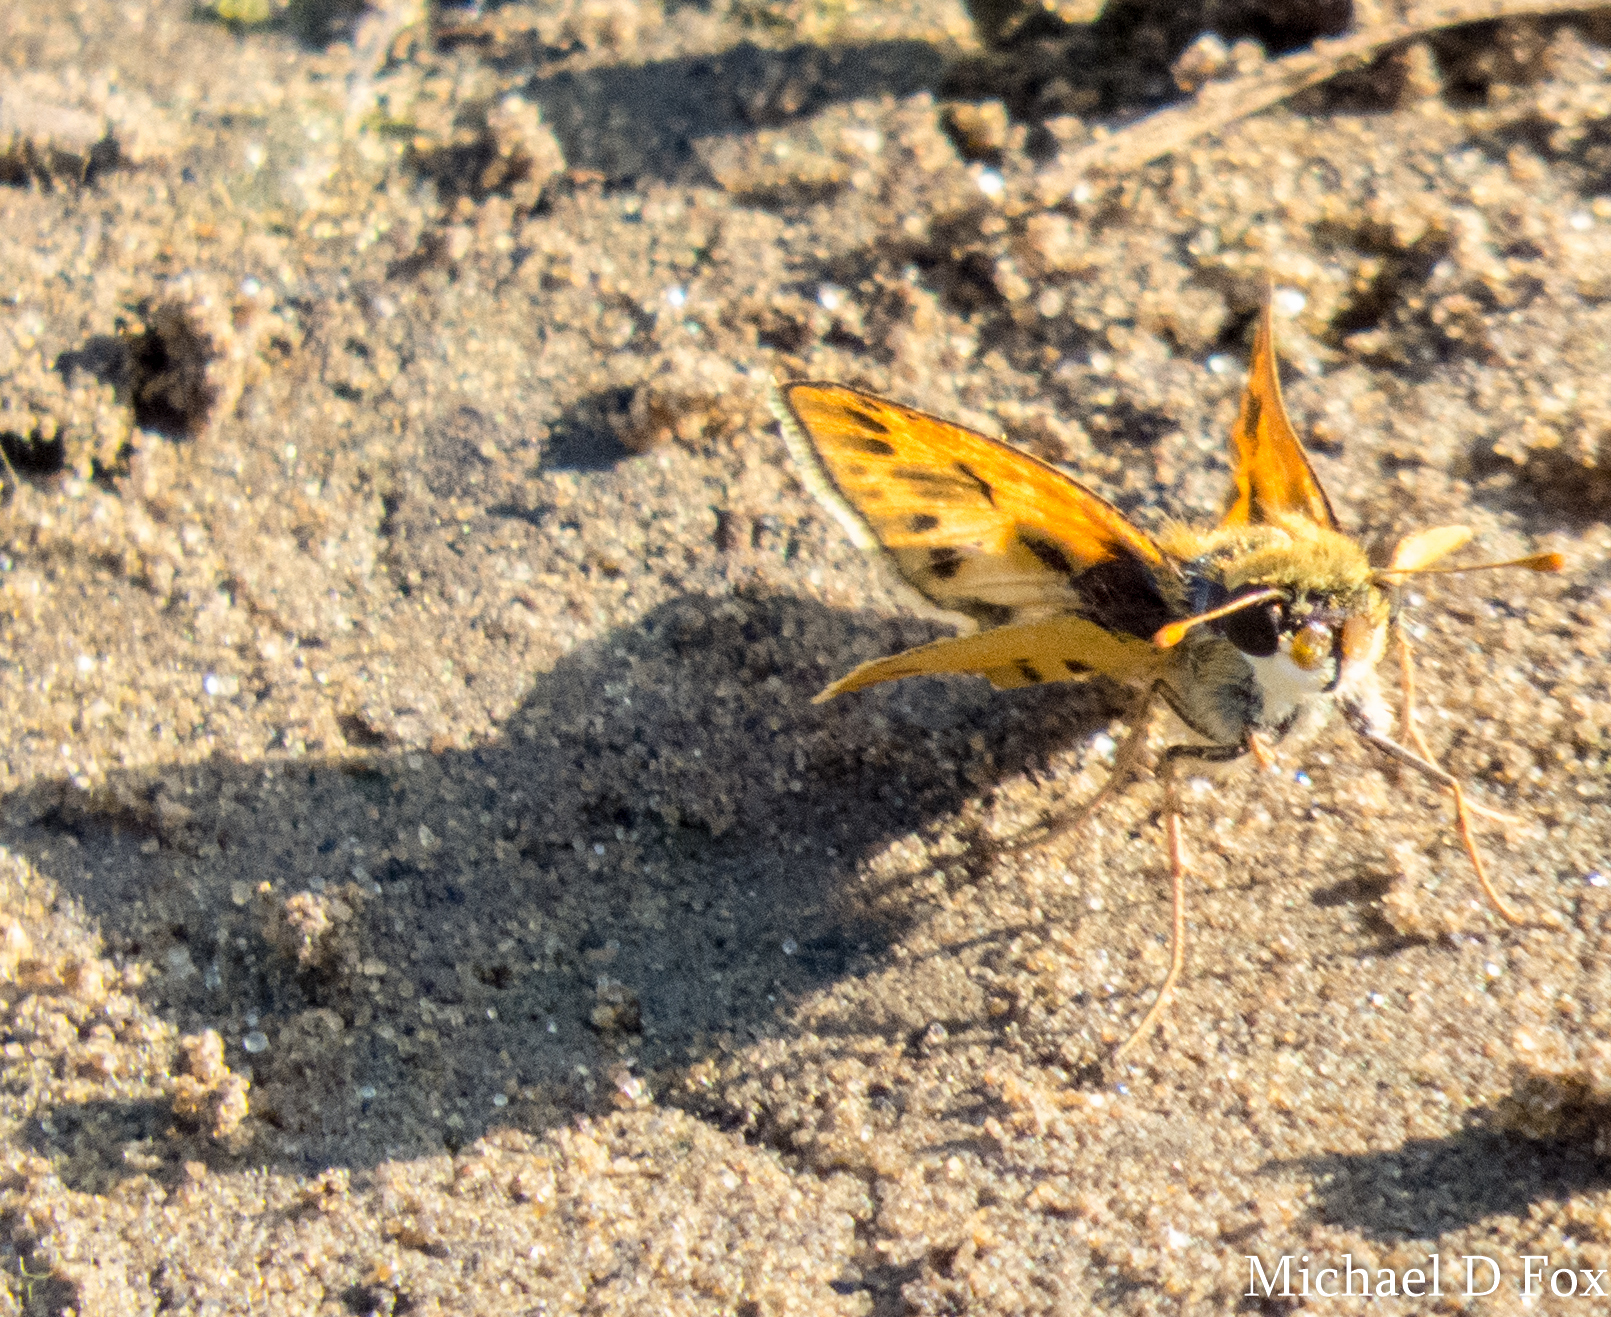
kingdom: Animalia
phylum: Arthropoda
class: Insecta
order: Lepidoptera
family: Hesperiidae
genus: Hylephila
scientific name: Hylephila phyleus
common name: Fiery skipper
